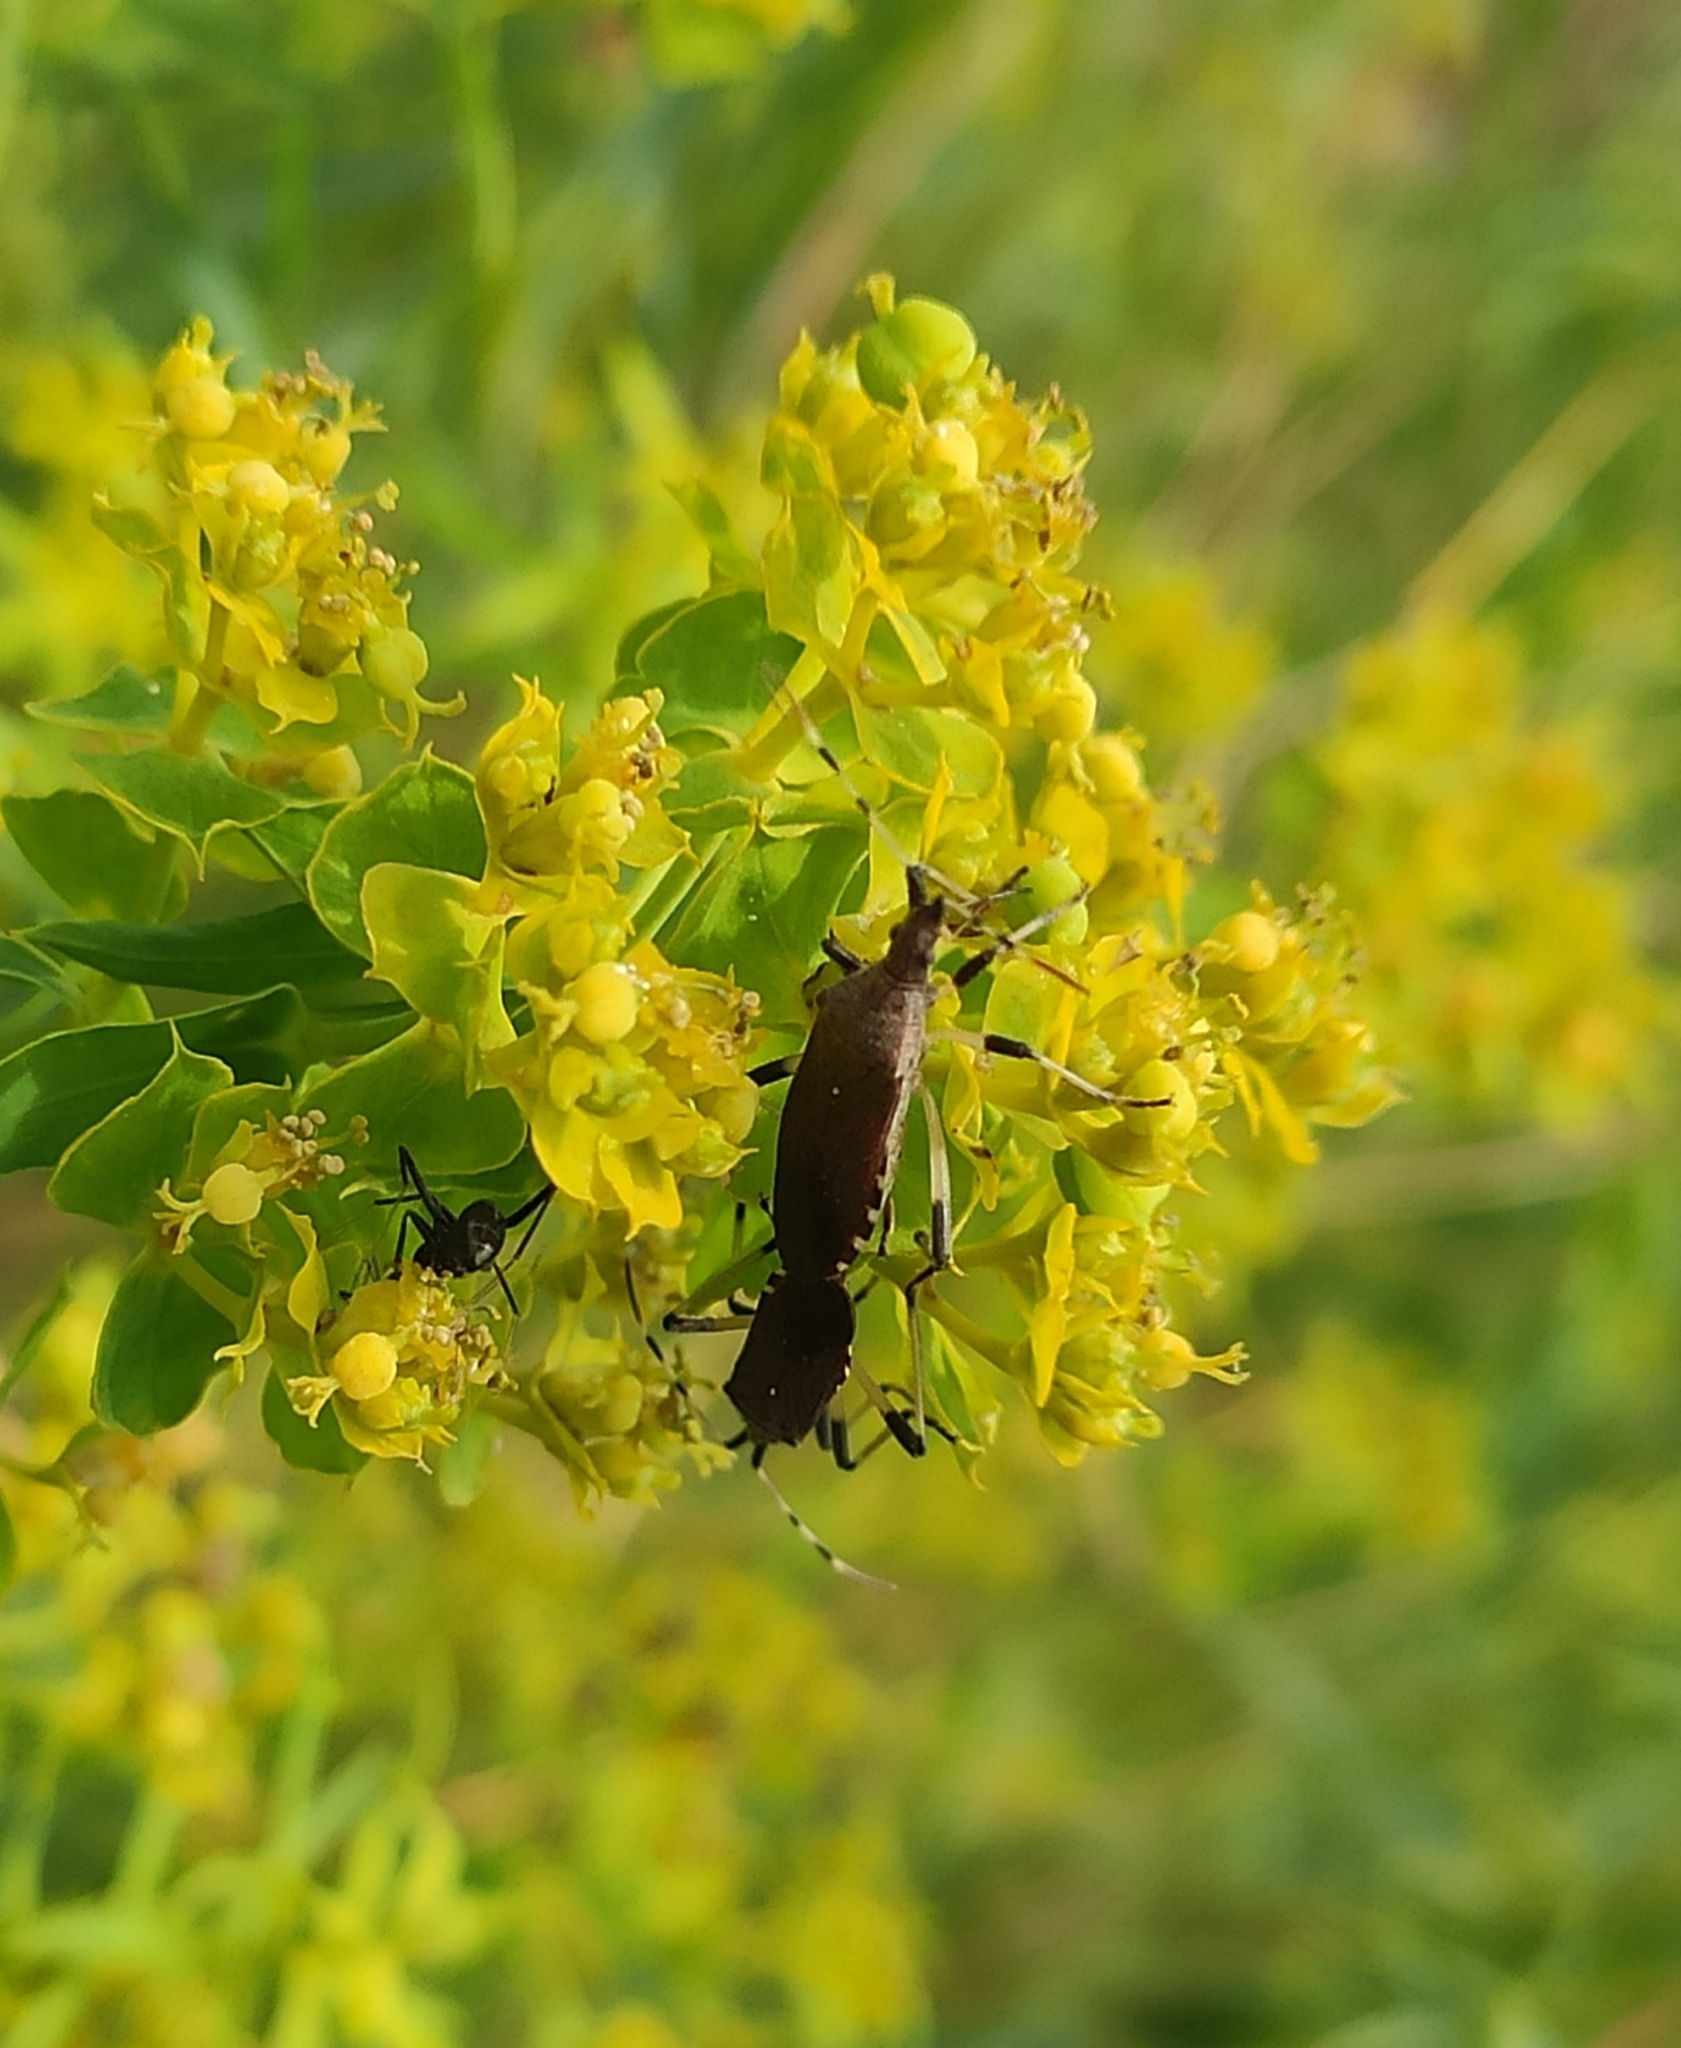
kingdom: Animalia
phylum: Arthropoda
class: Insecta
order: Hemiptera
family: Stenocephalidae
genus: Dicranocephalus
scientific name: Dicranocephalus albipes
